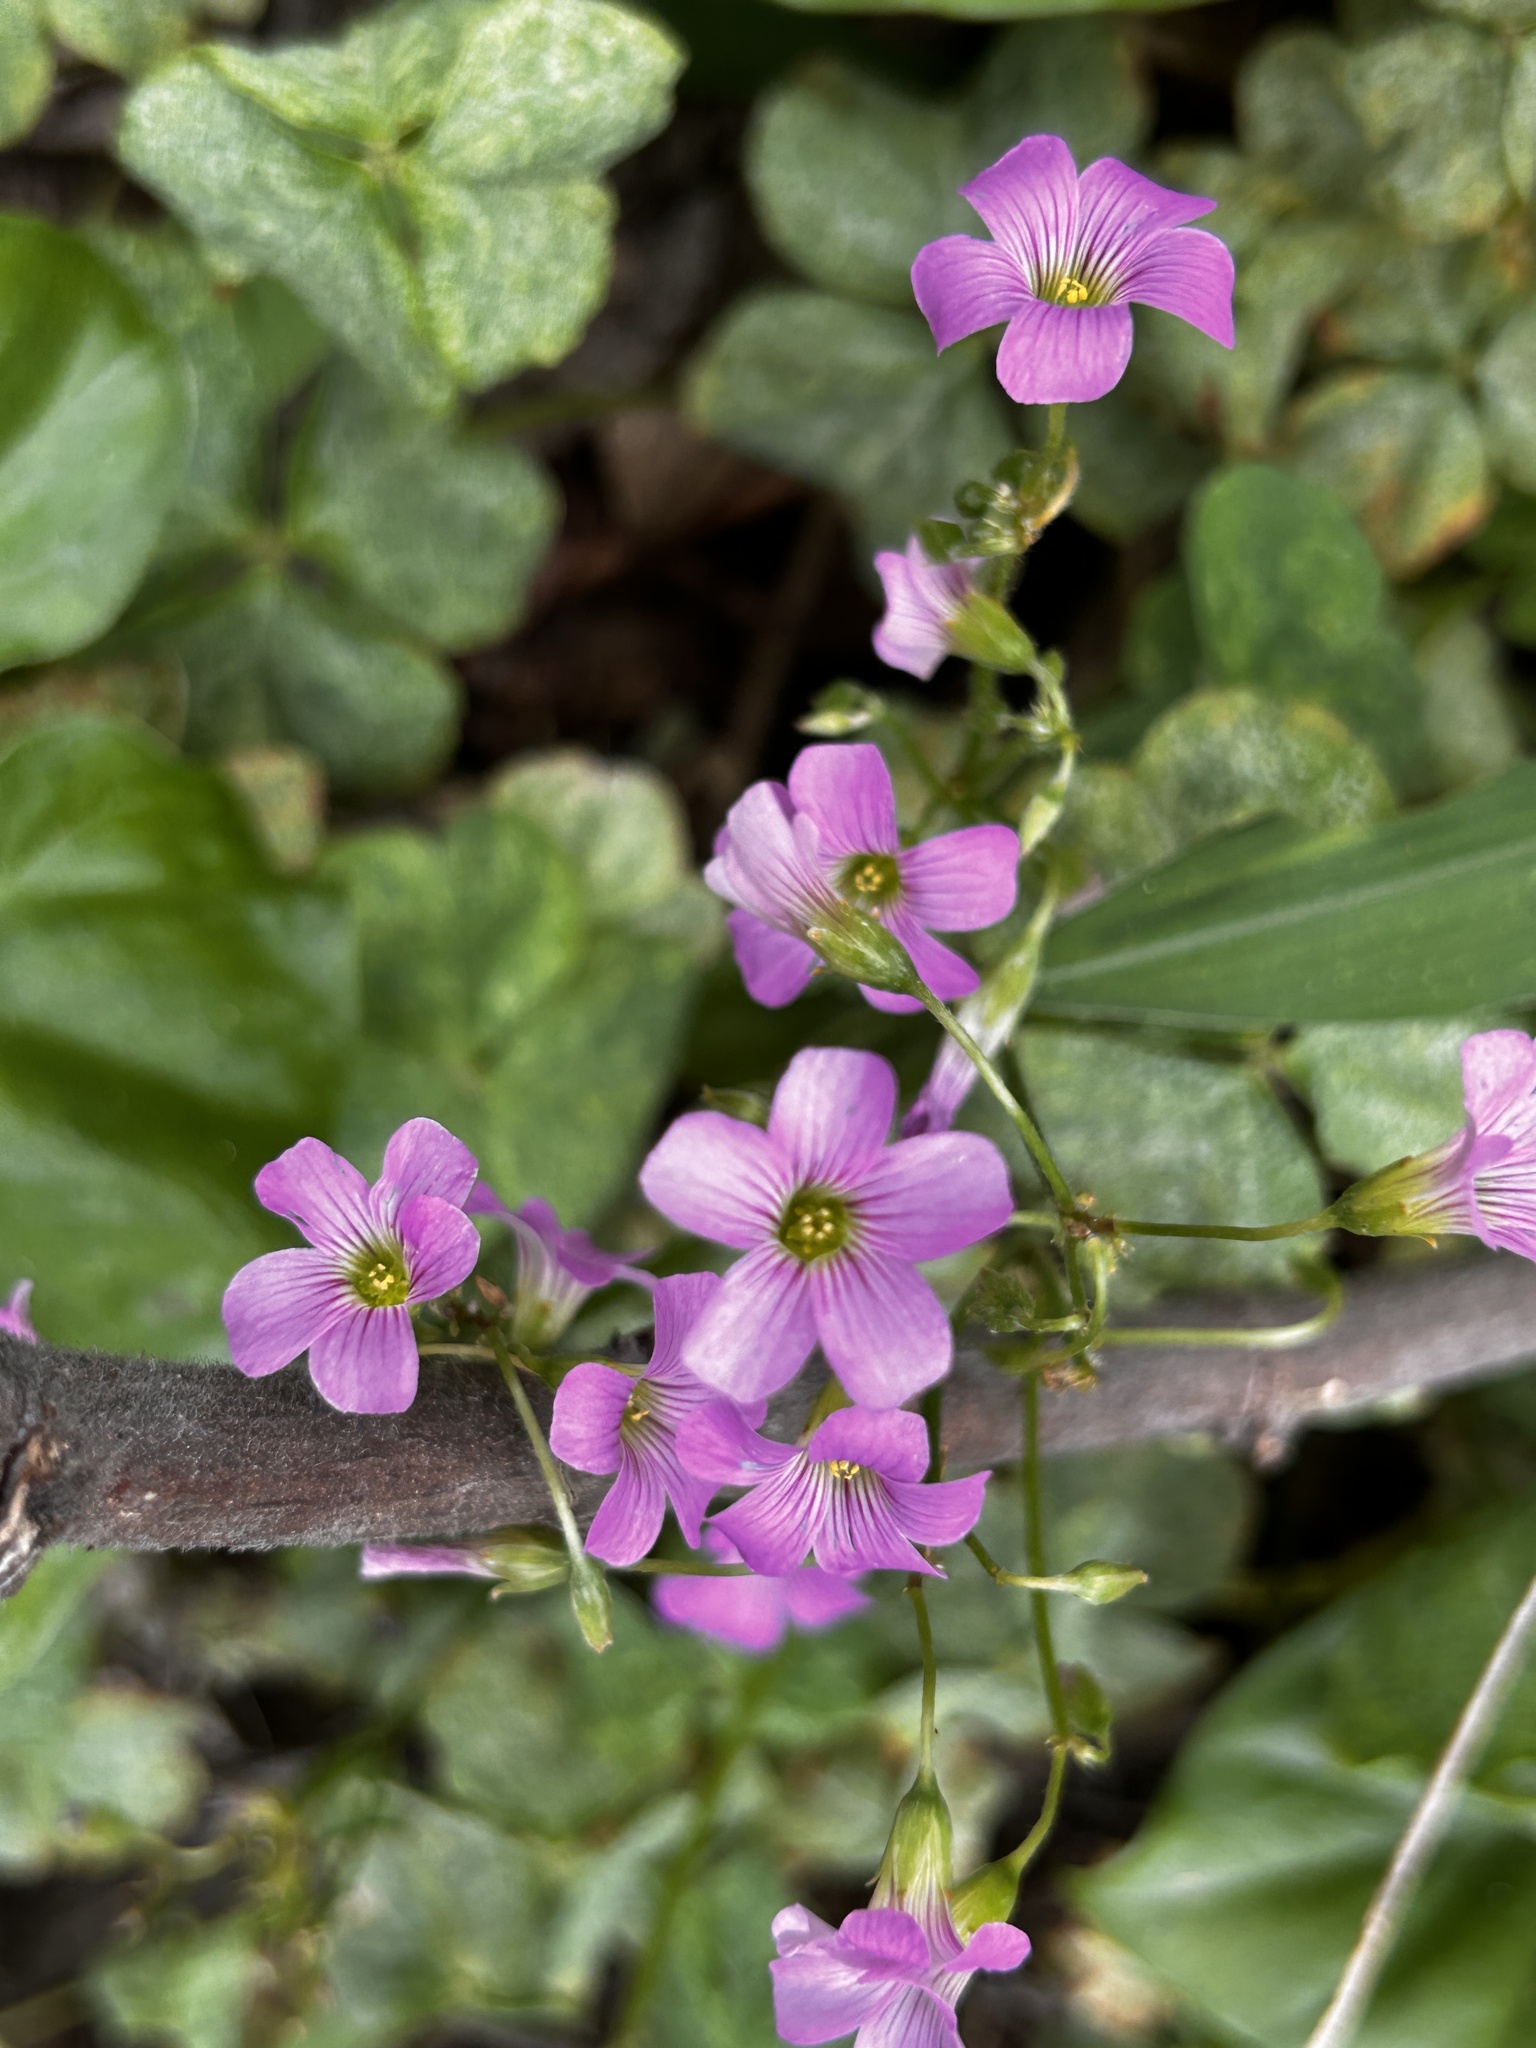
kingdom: Plantae
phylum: Tracheophyta
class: Magnoliopsida
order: Oxalidales
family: Oxalidaceae
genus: Oxalis
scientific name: Oxalis debilis
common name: Large-flowered pink-sorrel
